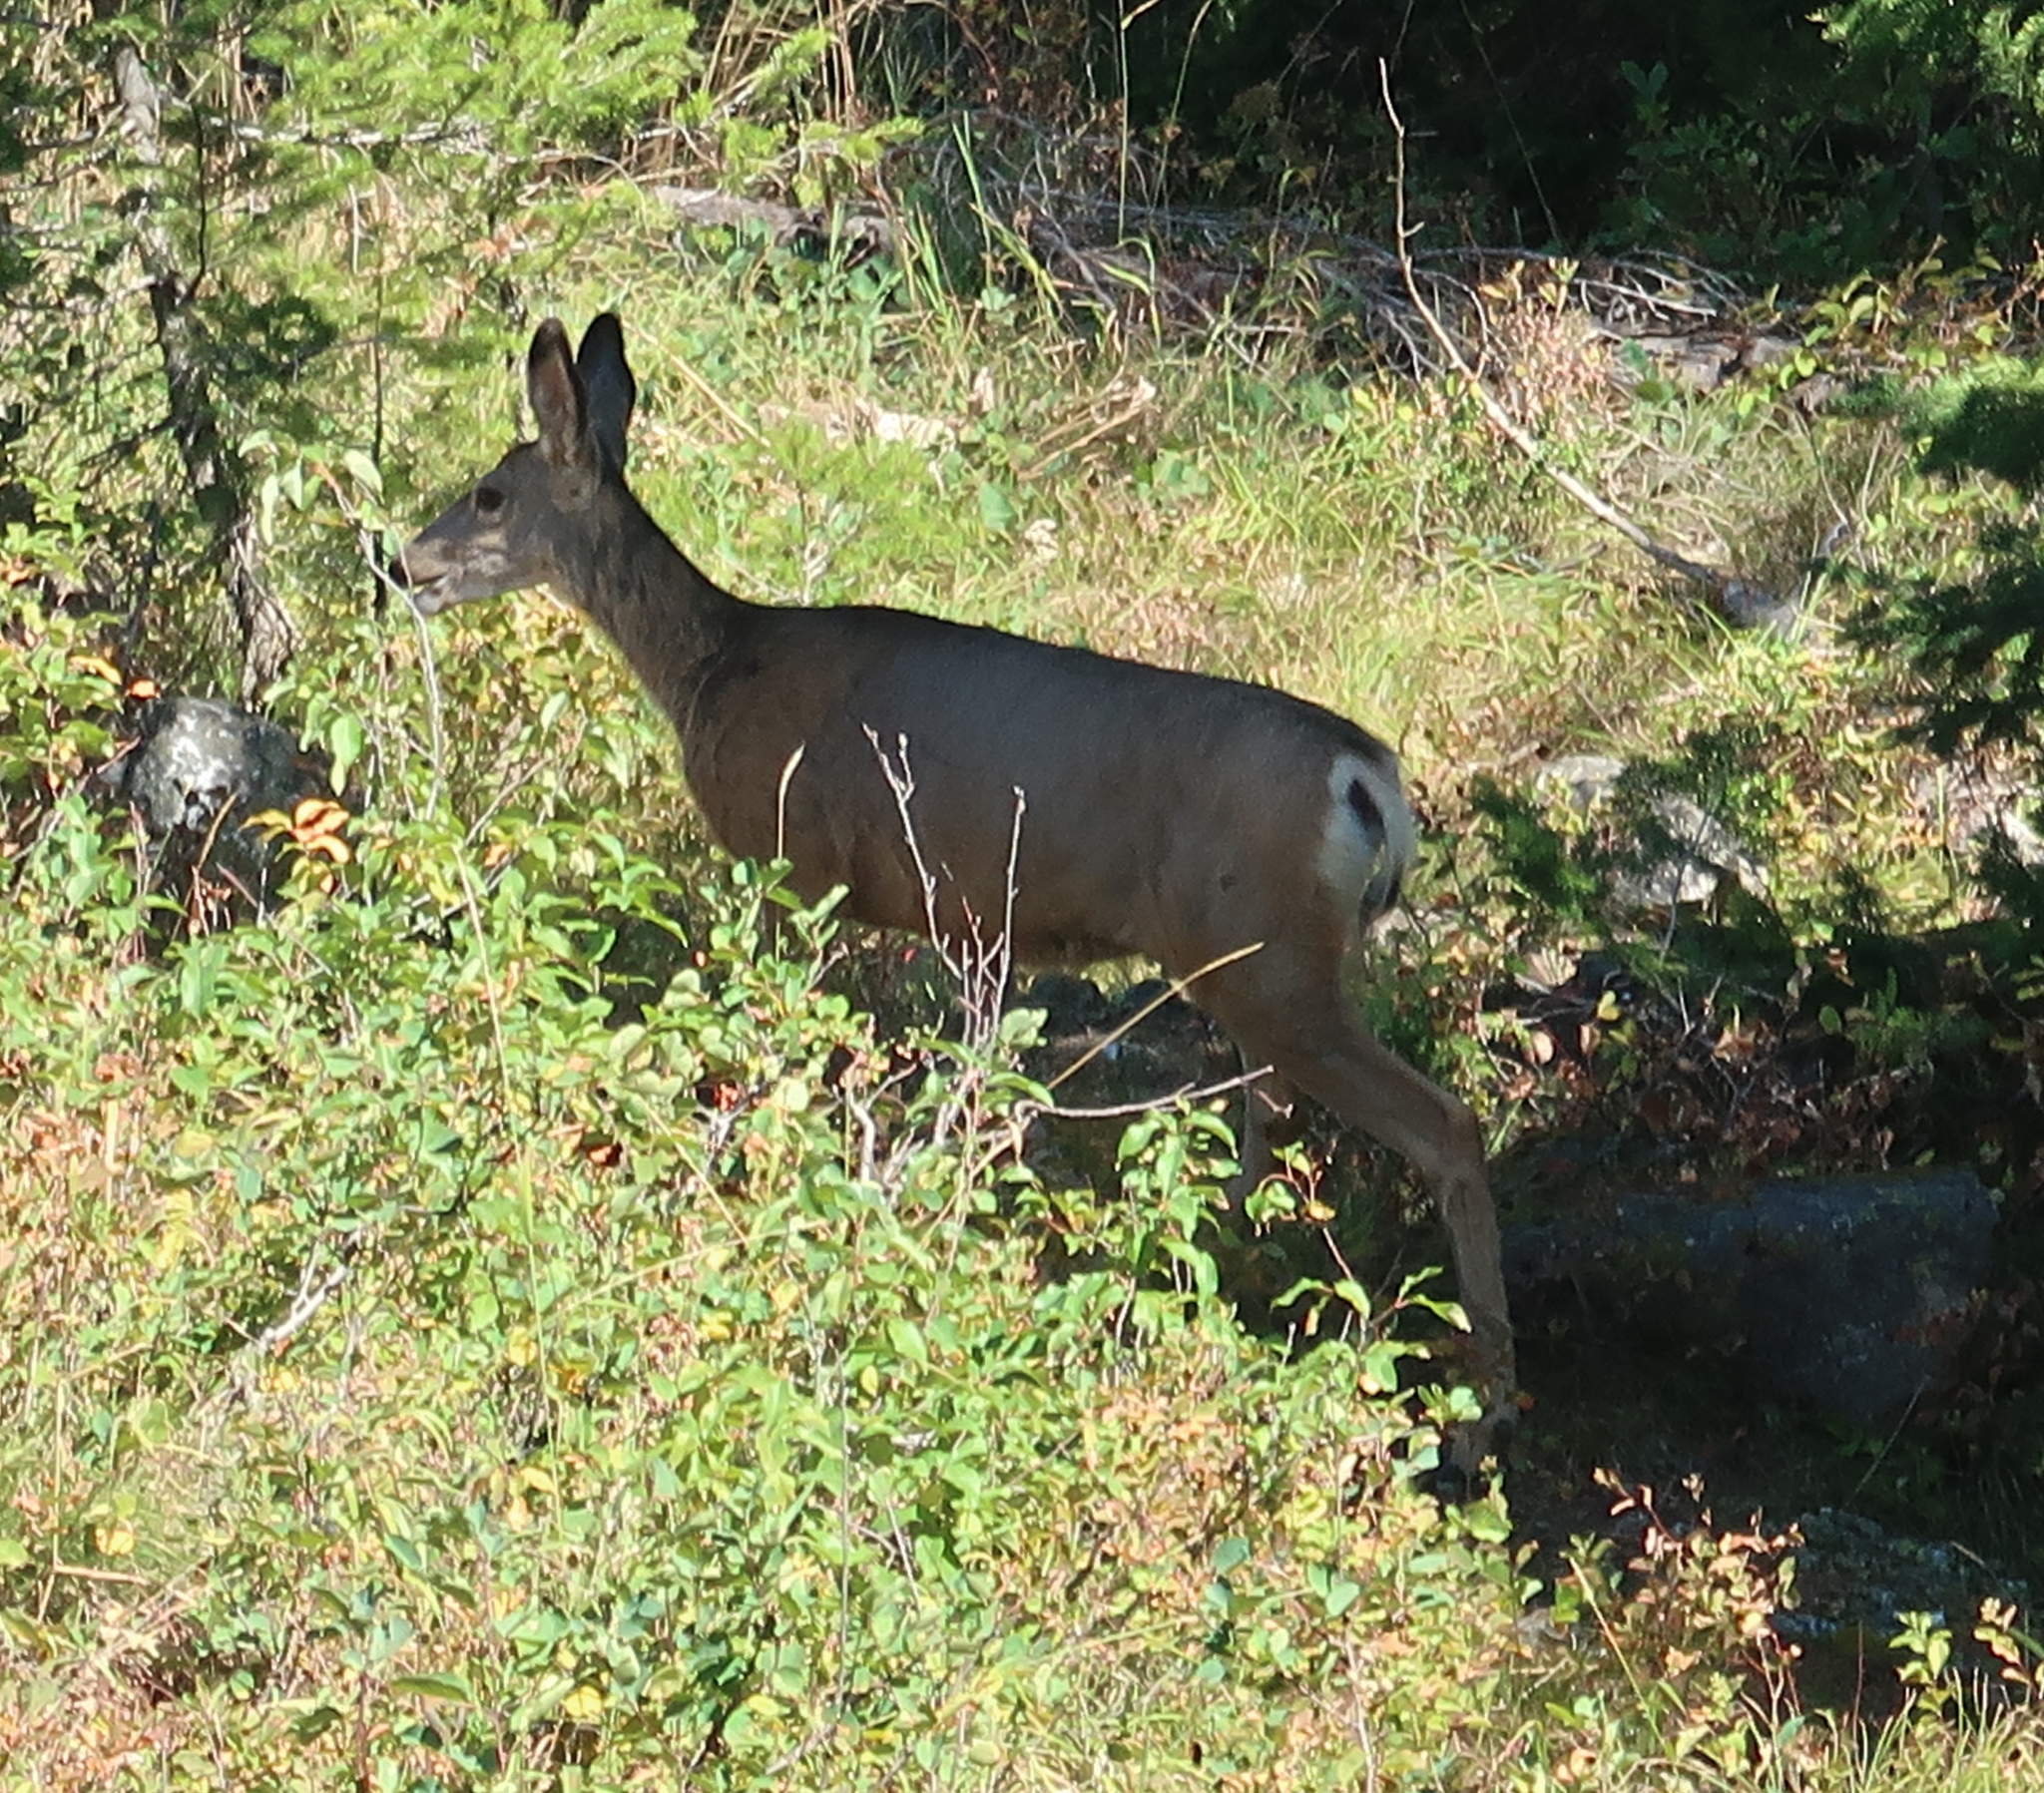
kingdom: Animalia
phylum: Chordata
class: Mammalia
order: Artiodactyla
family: Cervidae
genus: Odocoileus
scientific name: Odocoileus hemionus
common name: Mule deer
